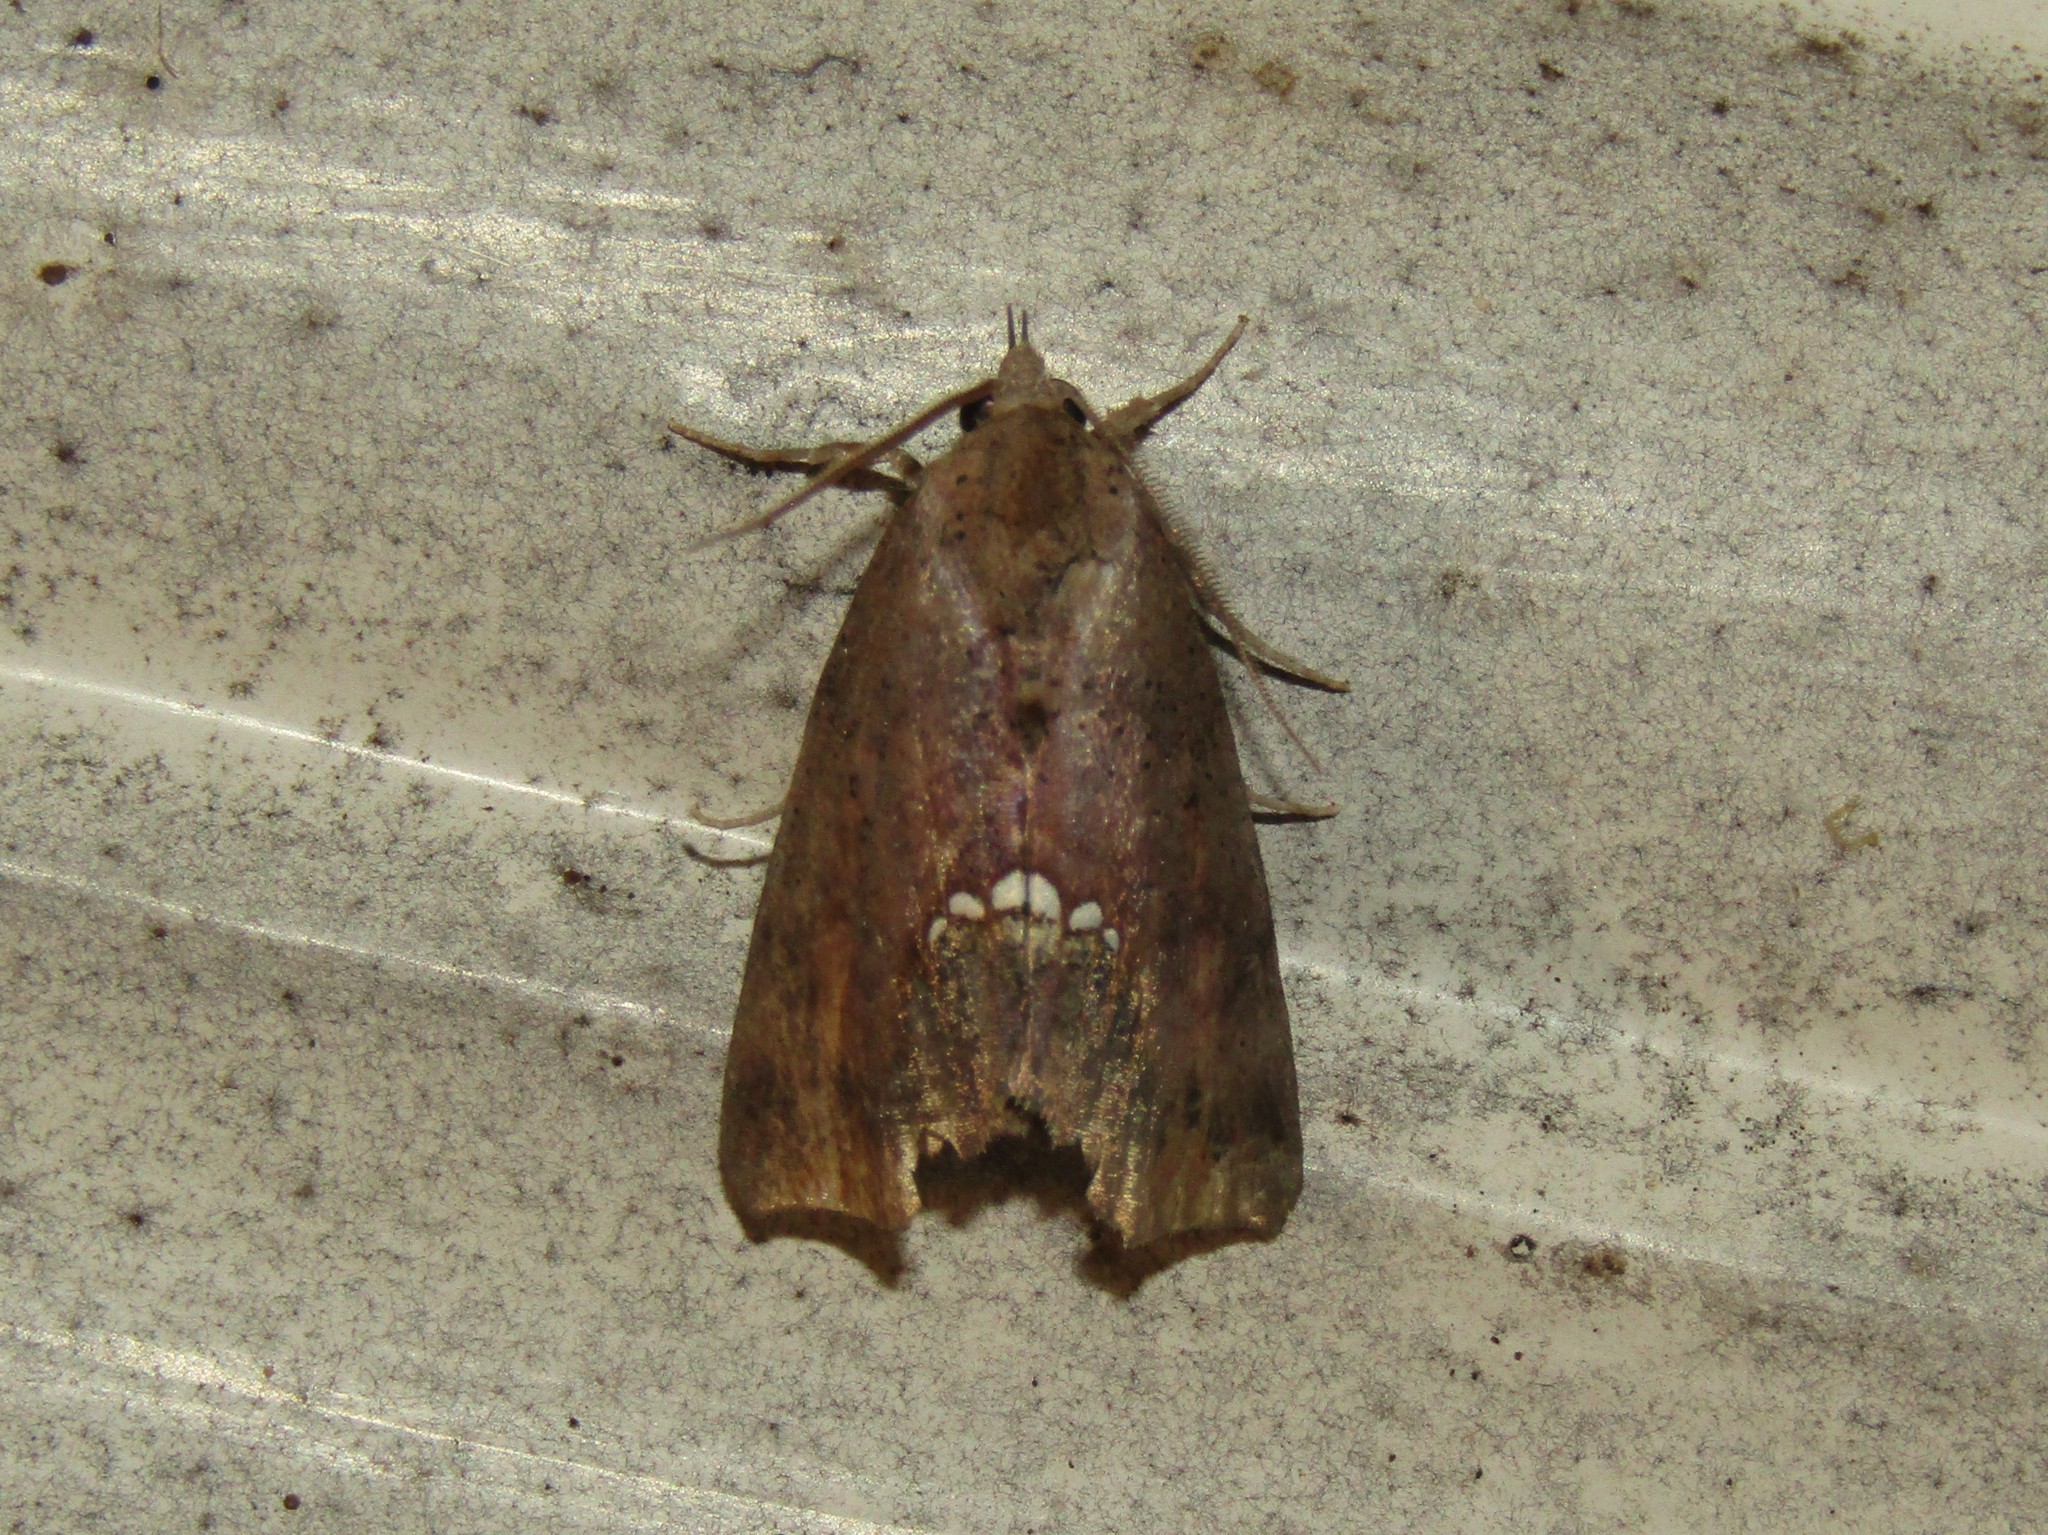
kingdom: Animalia
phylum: Arthropoda
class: Insecta
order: Lepidoptera
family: Erebidae
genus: Hypsoropha
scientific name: Hypsoropha hormos
